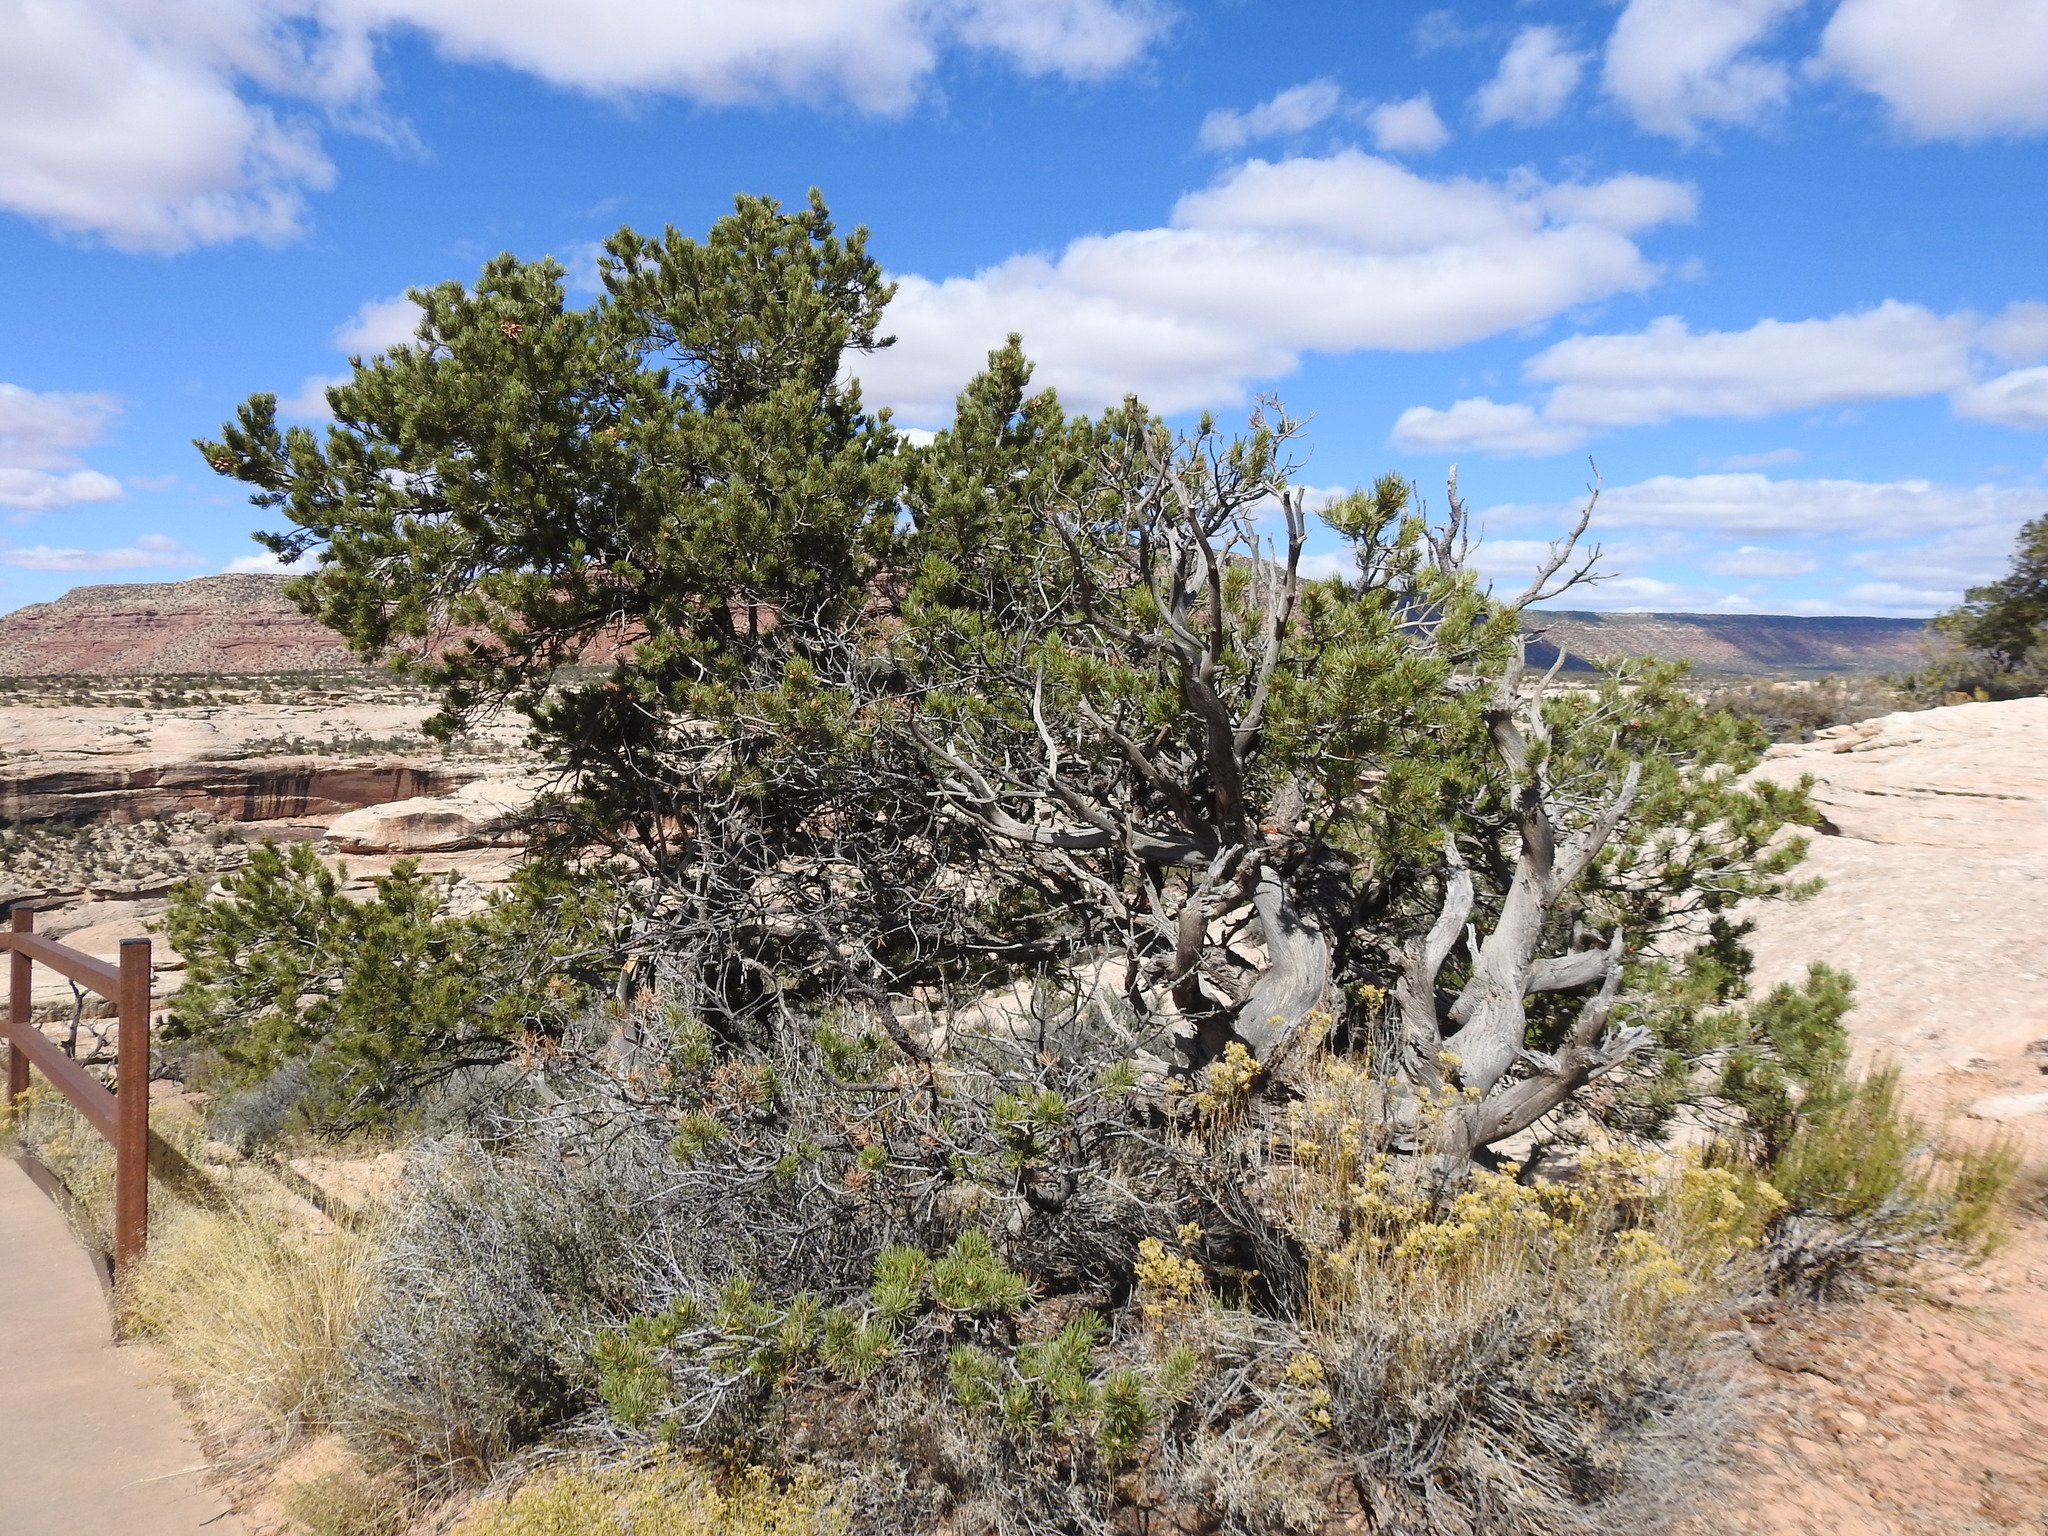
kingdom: Plantae
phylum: Tracheophyta
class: Pinopsida
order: Pinales
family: Pinaceae
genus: Pinus
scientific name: Pinus edulis
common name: Colorado pinyon
